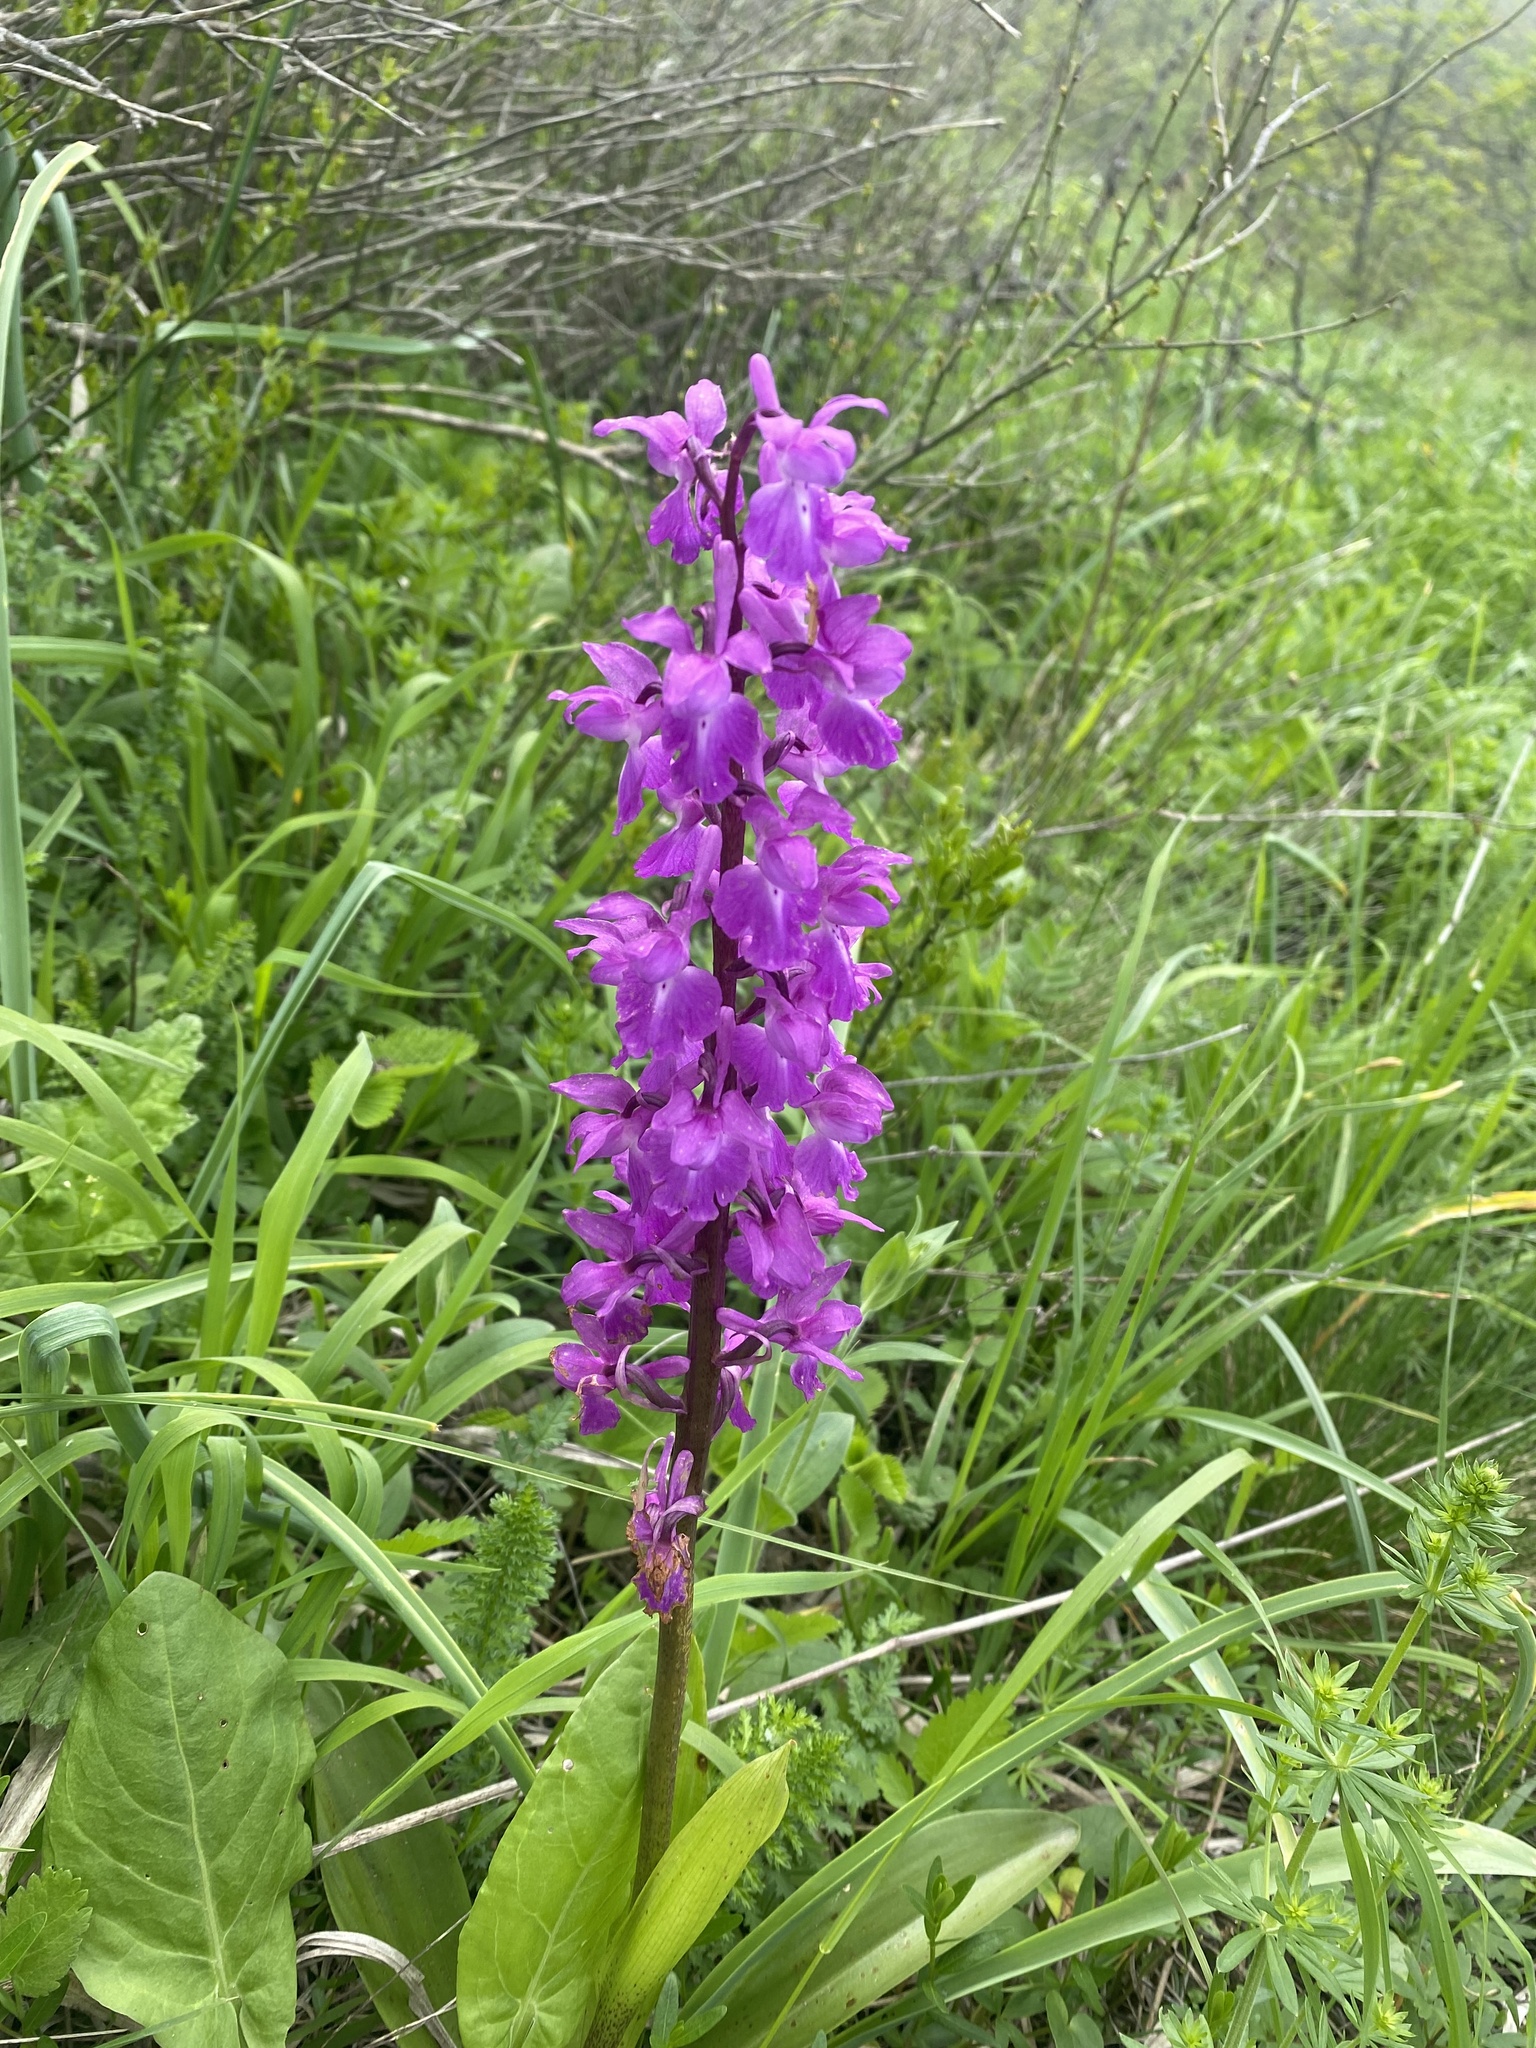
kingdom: Plantae
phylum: Tracheophyta
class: Liliopsida
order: Asparagales
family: Orchidaceae
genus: Orchis
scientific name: Orchis mascula
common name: Early-purple orchid
